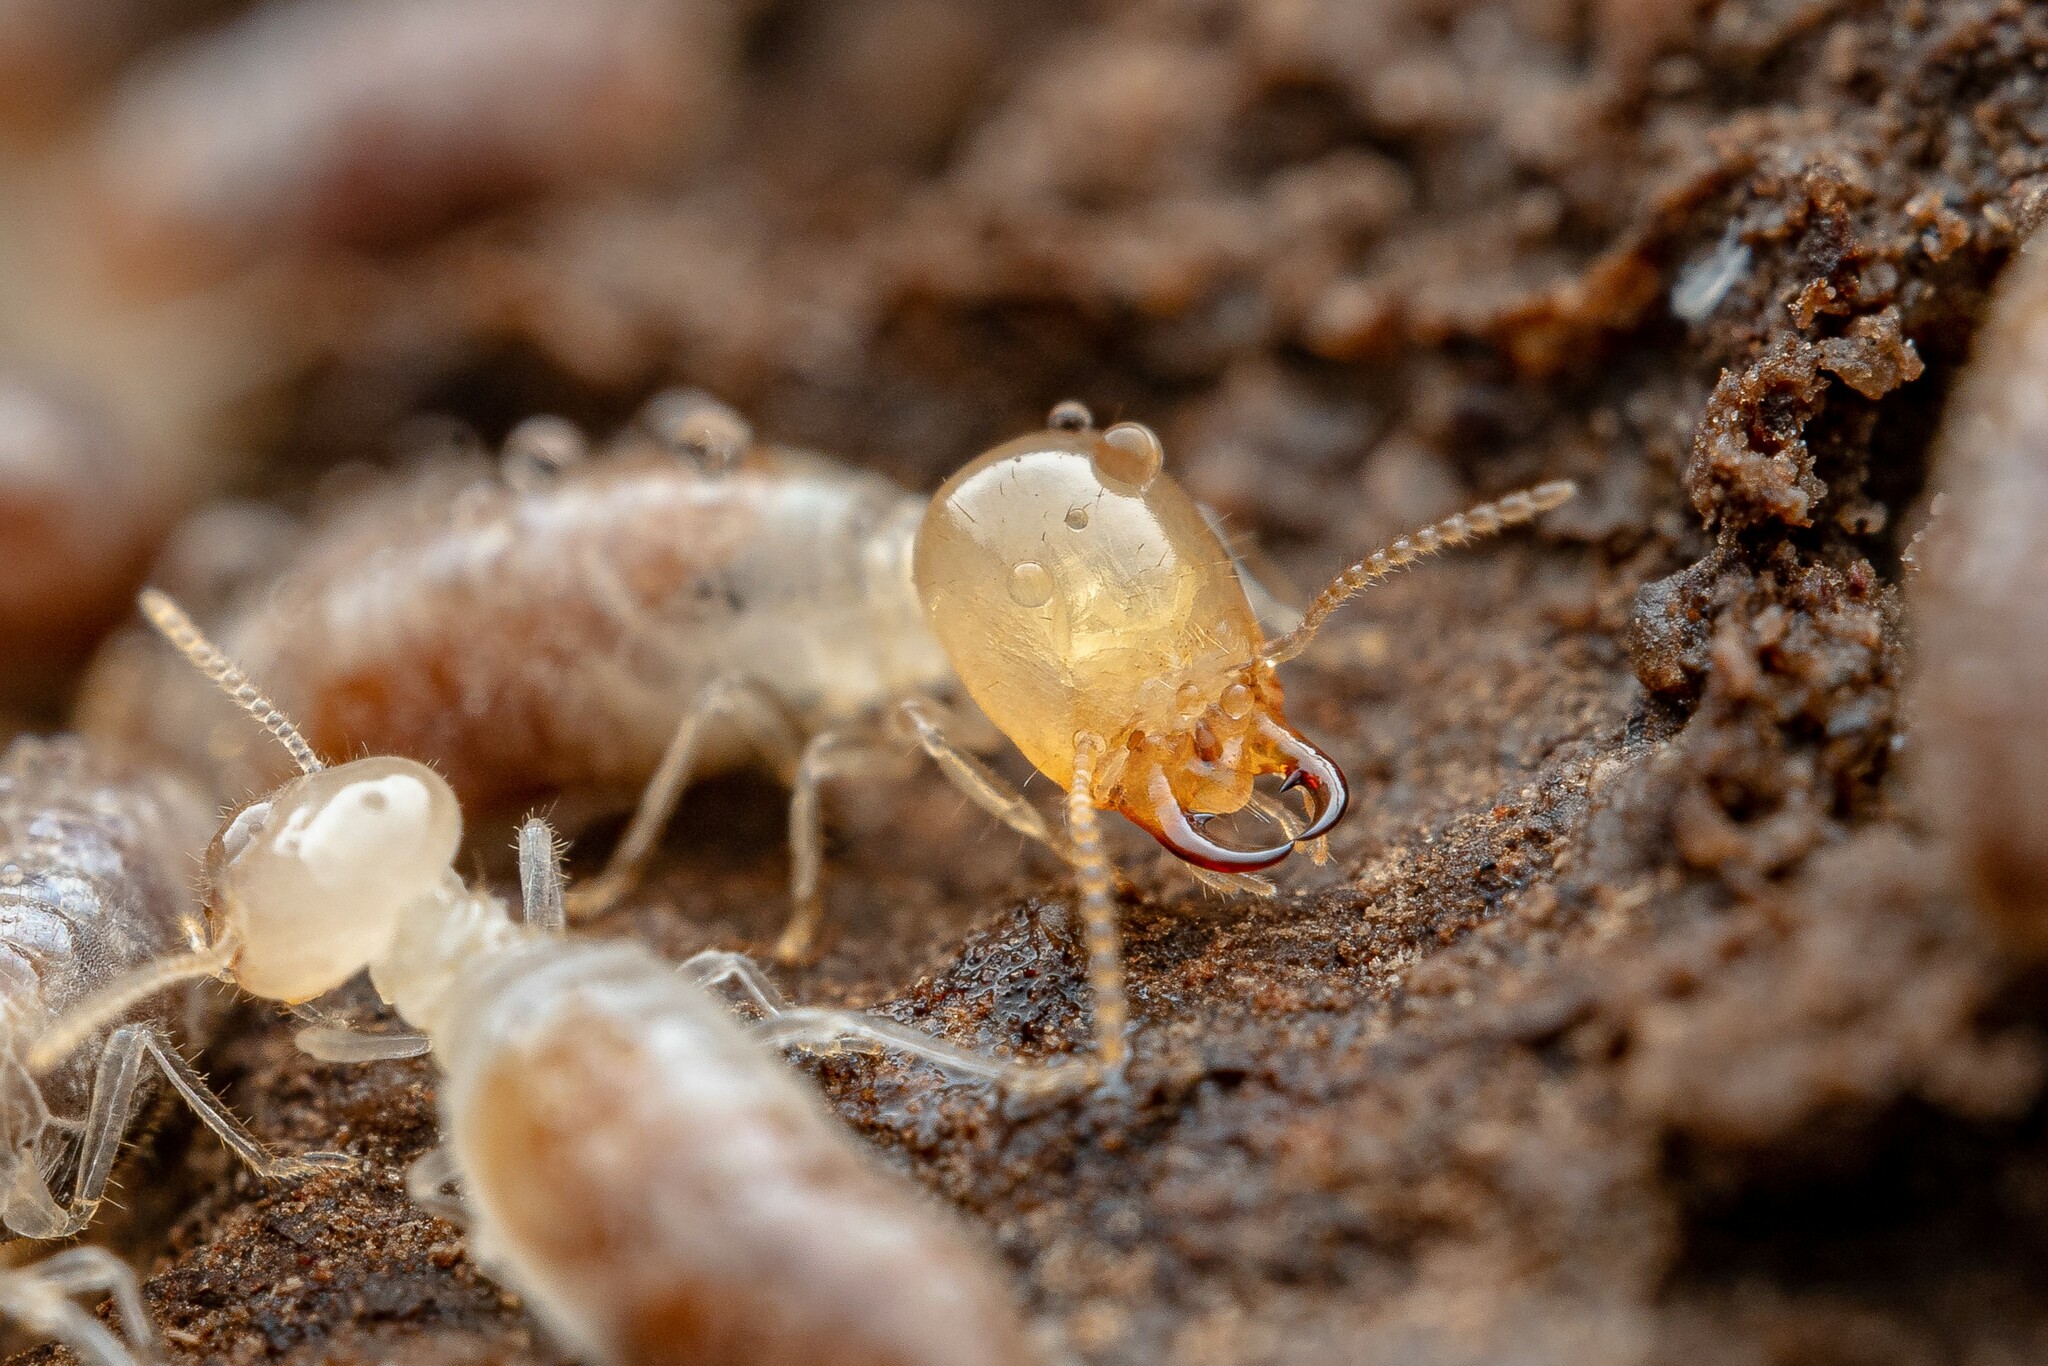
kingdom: Animalia
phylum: Arthropoda
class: Insecta
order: Blattodea
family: Termitidae
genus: Amitermes
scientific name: Amitermes wheeleri
